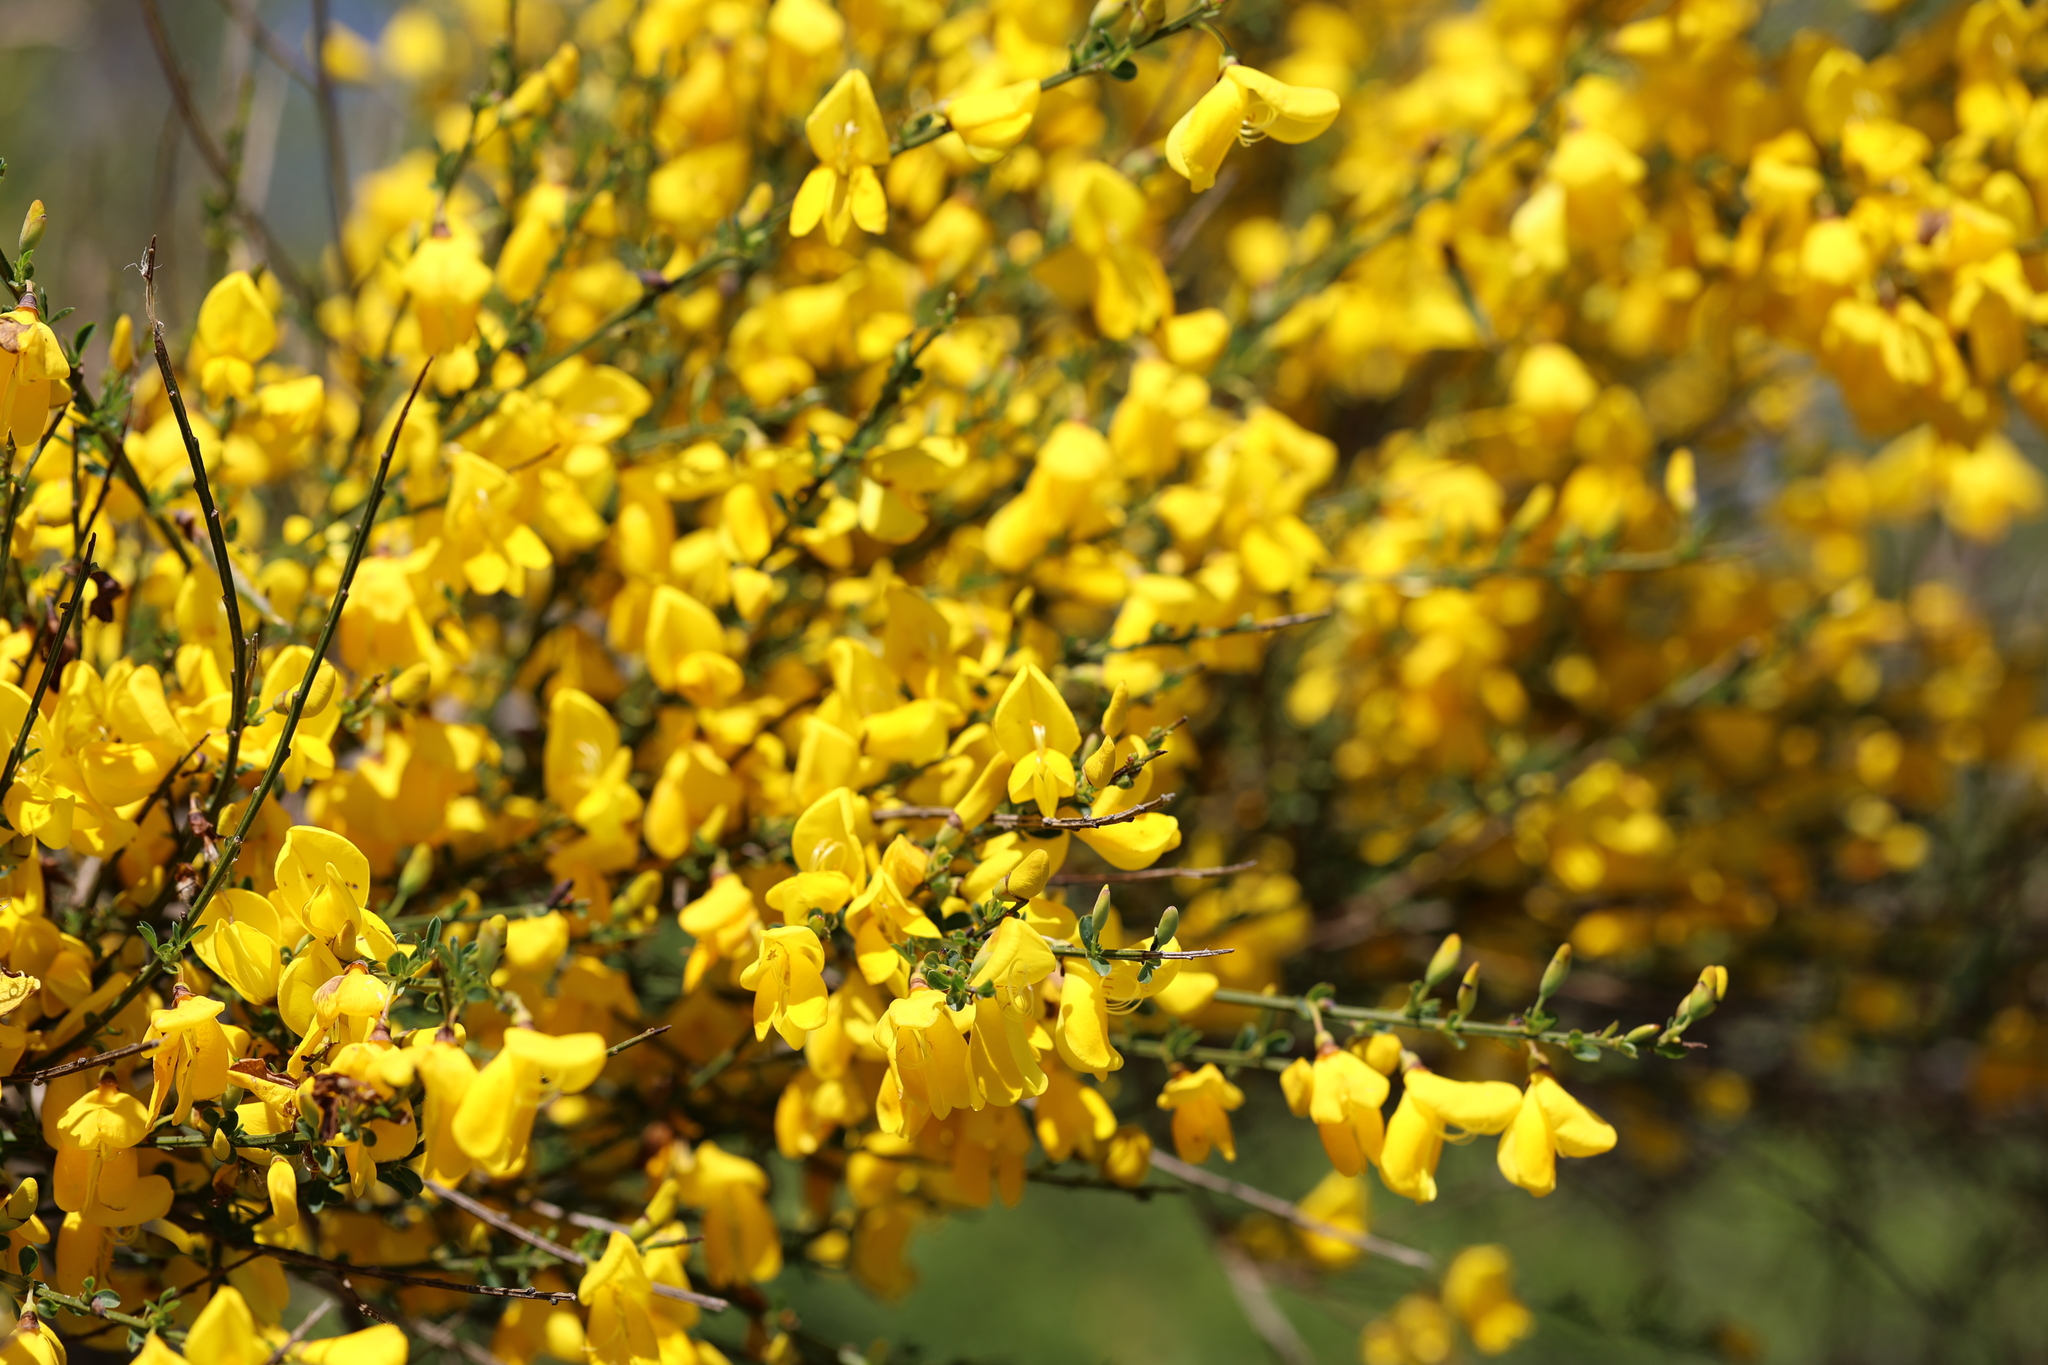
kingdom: Plantae
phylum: Tracheophyta
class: Magnoliopsida
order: Fabales
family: Fabaceae
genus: Cytisus
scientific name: Cytisus scoparius
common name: Scotch broom
